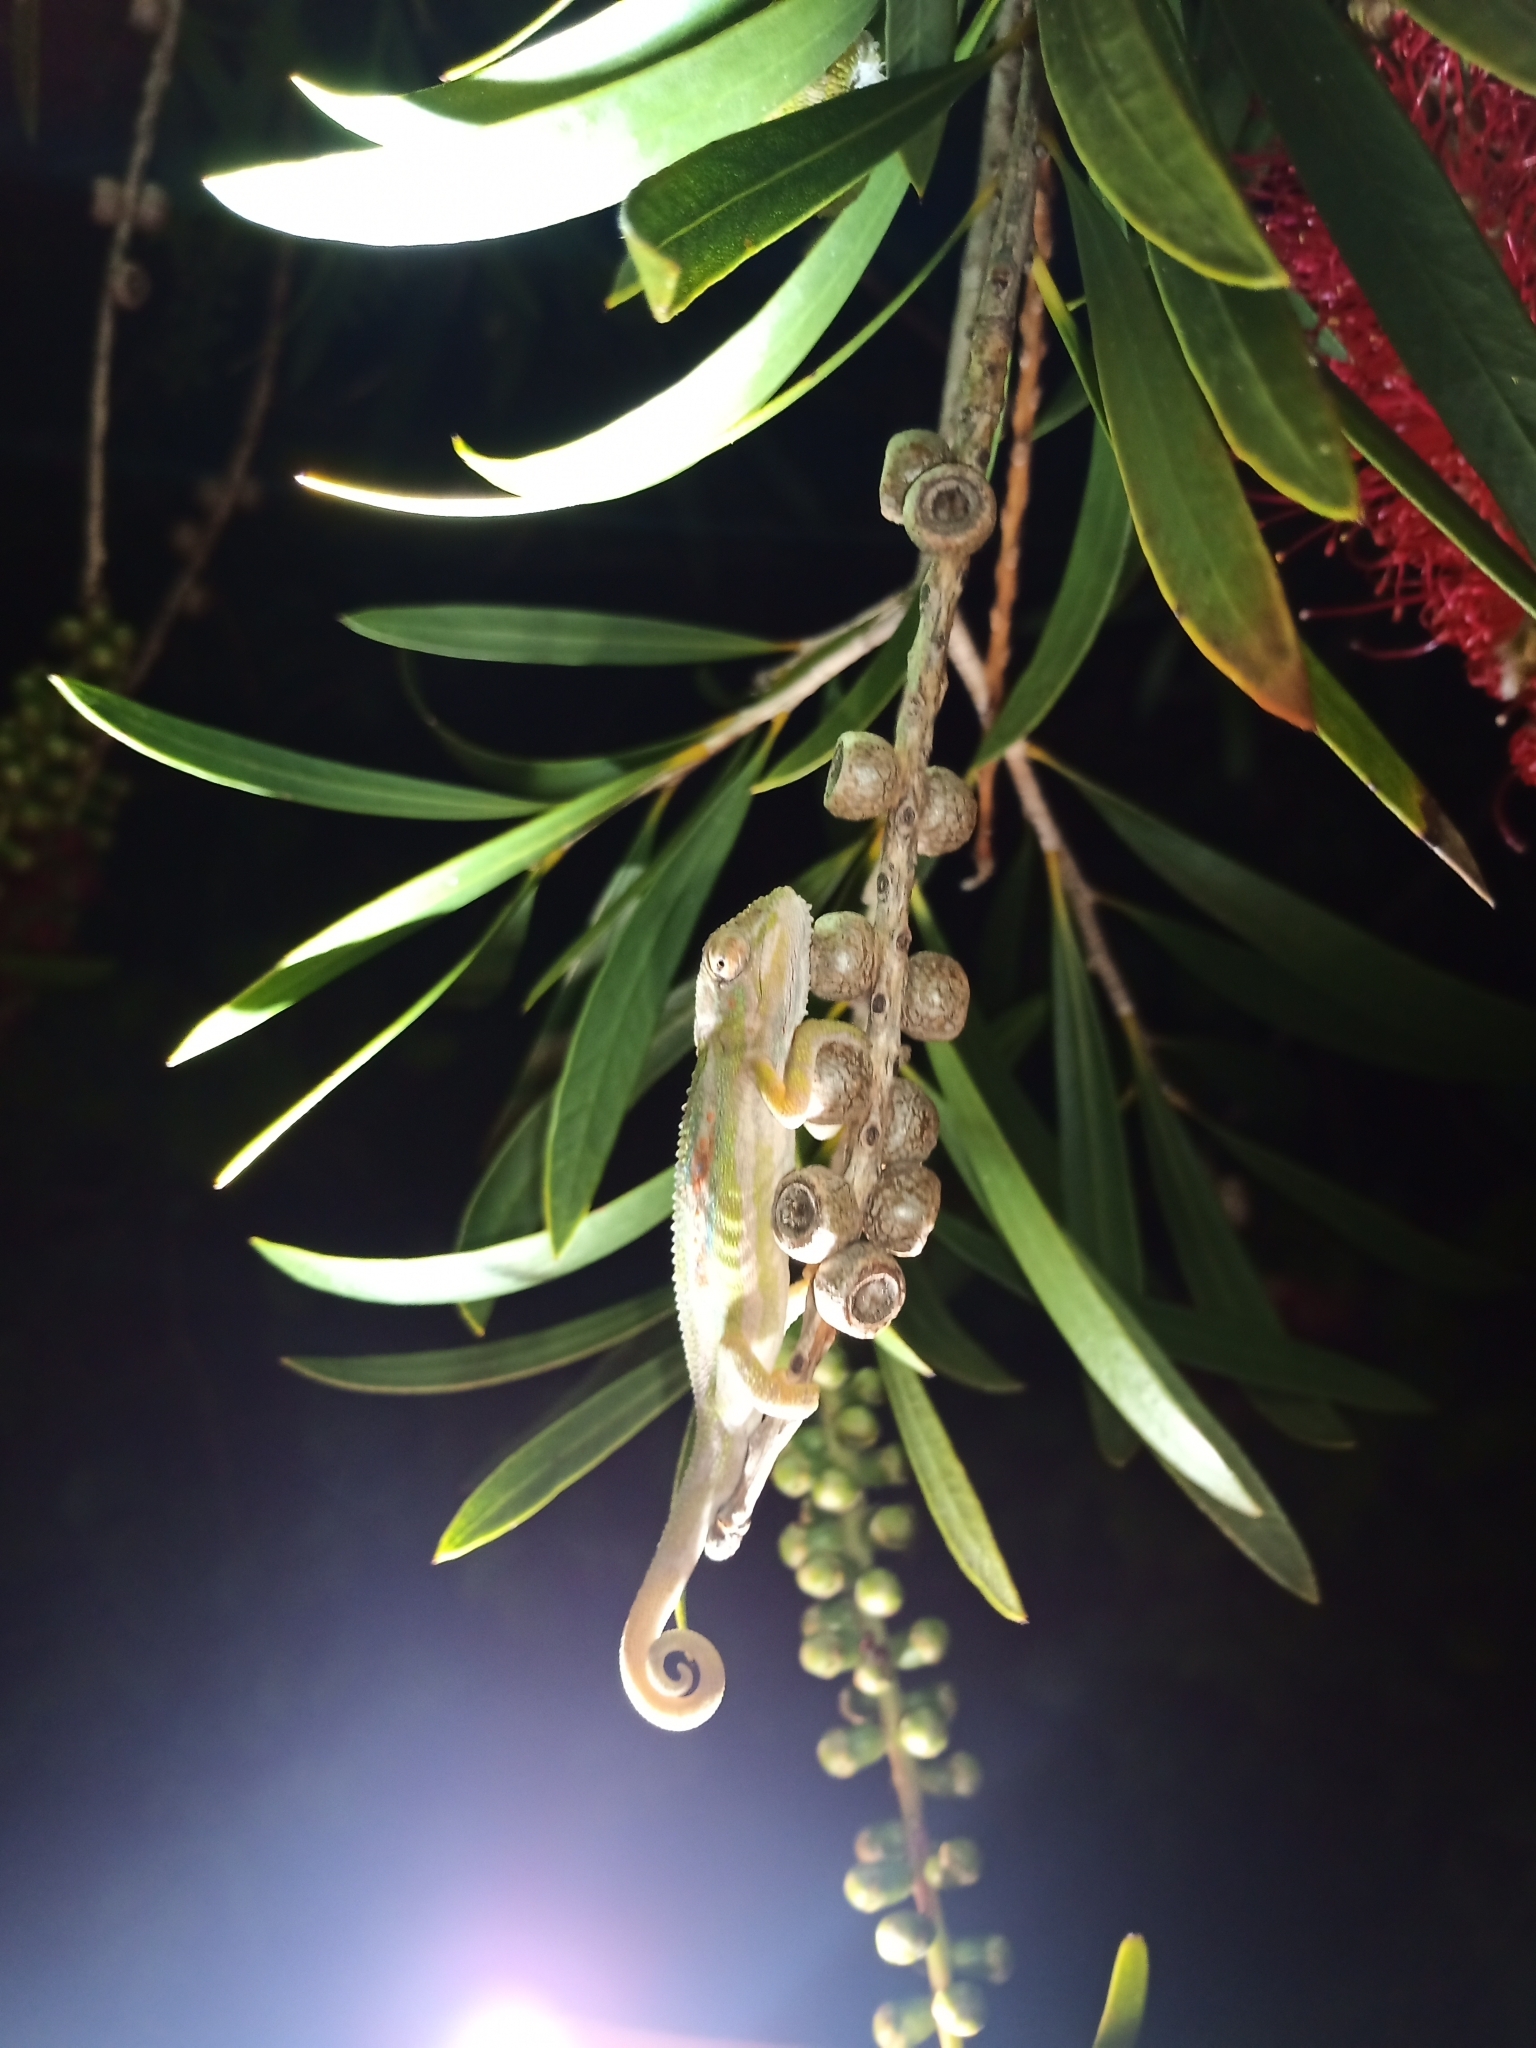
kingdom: Animalia
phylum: Chordata
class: Squamata
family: Chamaeleonidae
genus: Bradypodion
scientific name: Bradypodion pumilum
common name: Cape dwarf chameleon
